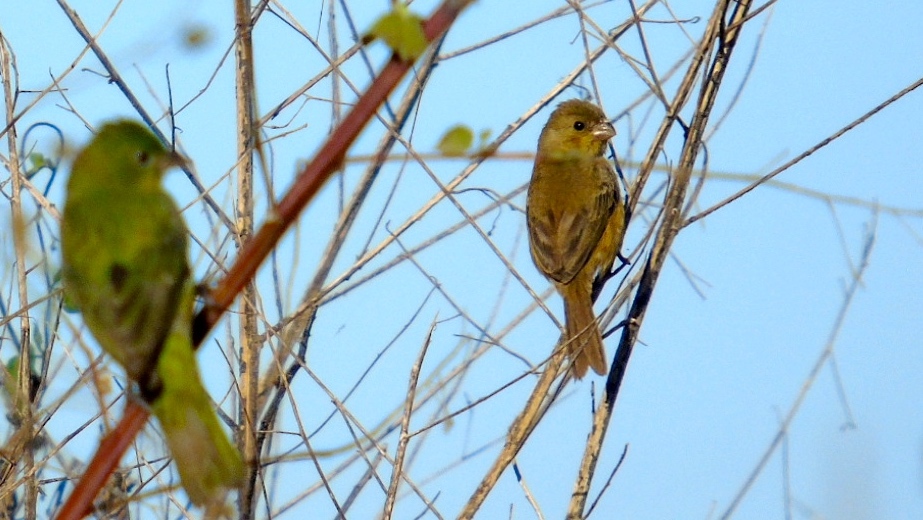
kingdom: Animalia
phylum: Chordata
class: Aves
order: Passeriformes
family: Thraupidae
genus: Sporophila
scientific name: Sporophila torqueola
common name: White-collared seedeater
